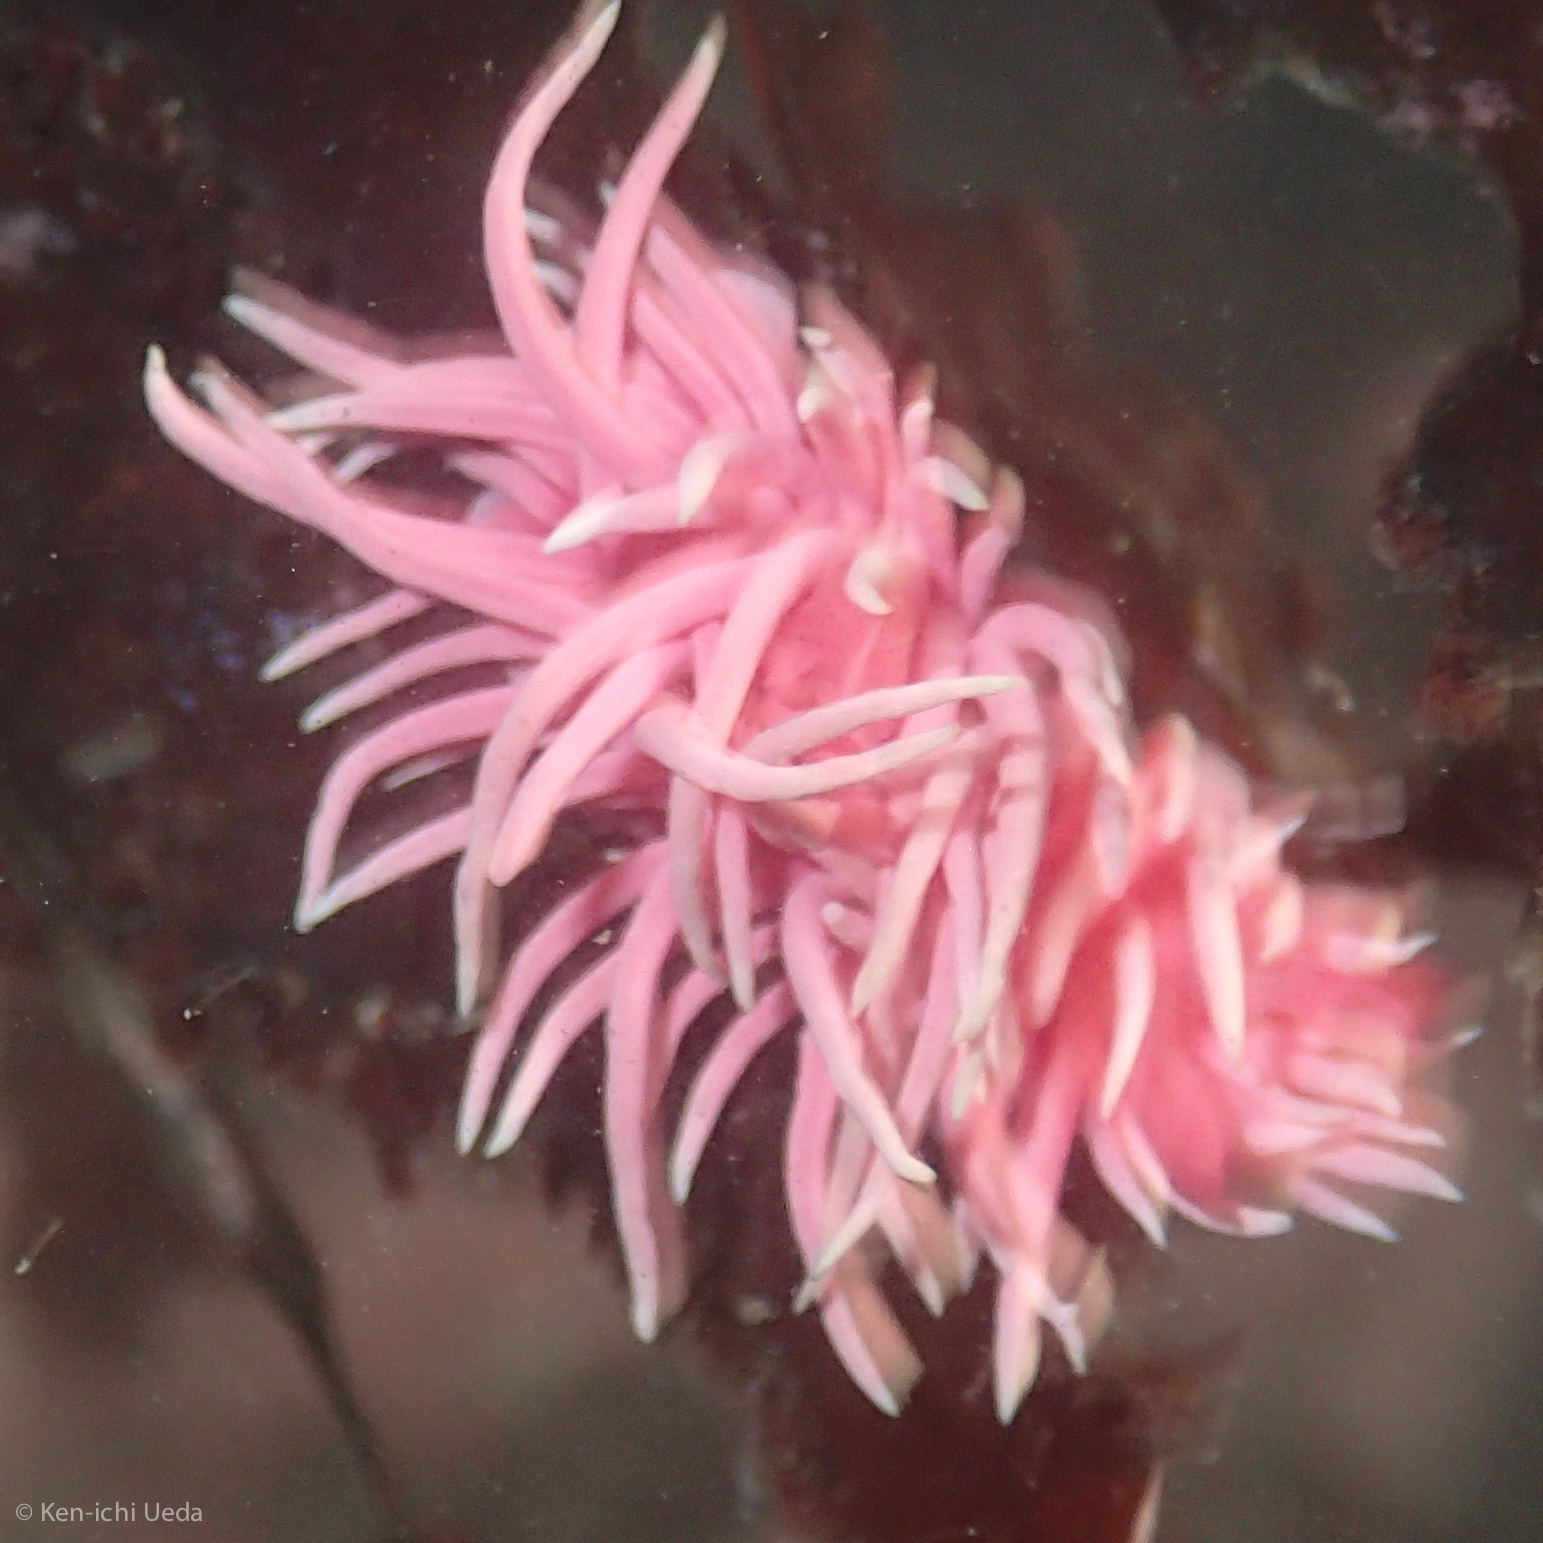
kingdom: Animalia
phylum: Mollusca
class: Gastropoda
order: Nudibranchia
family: Goniodorididae
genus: Okenia
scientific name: Okenia
